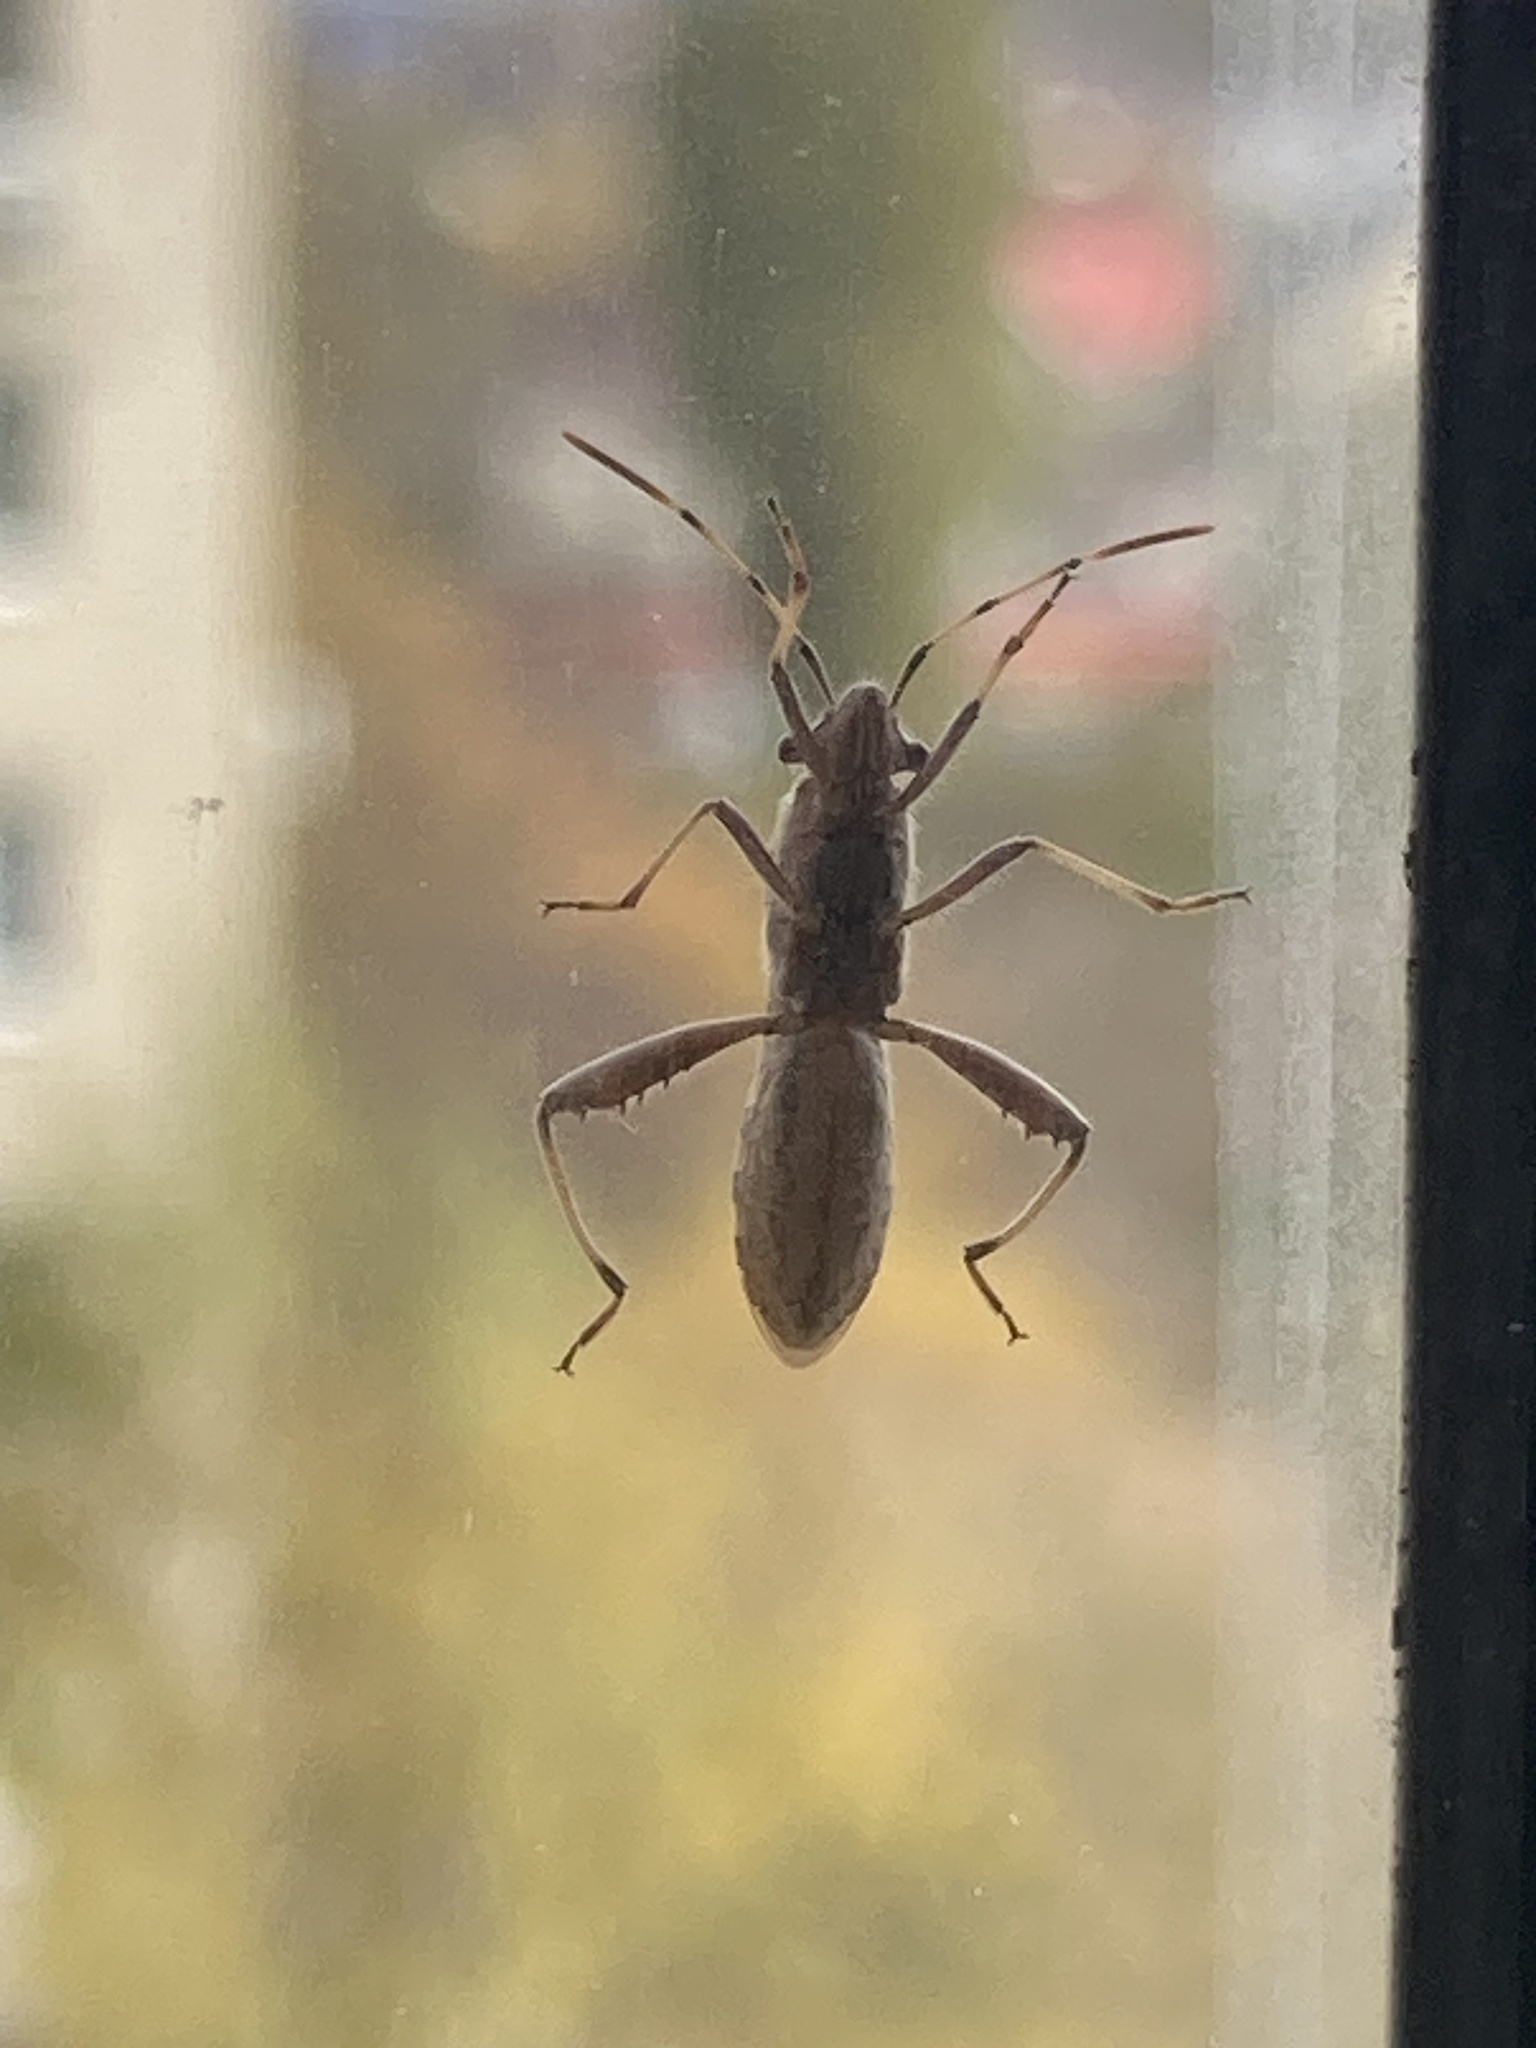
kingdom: Animalia
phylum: Arthropoda
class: Insecta
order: Hemiptera
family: Alydidae
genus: Camptopus
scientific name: Camptopus lateralis
